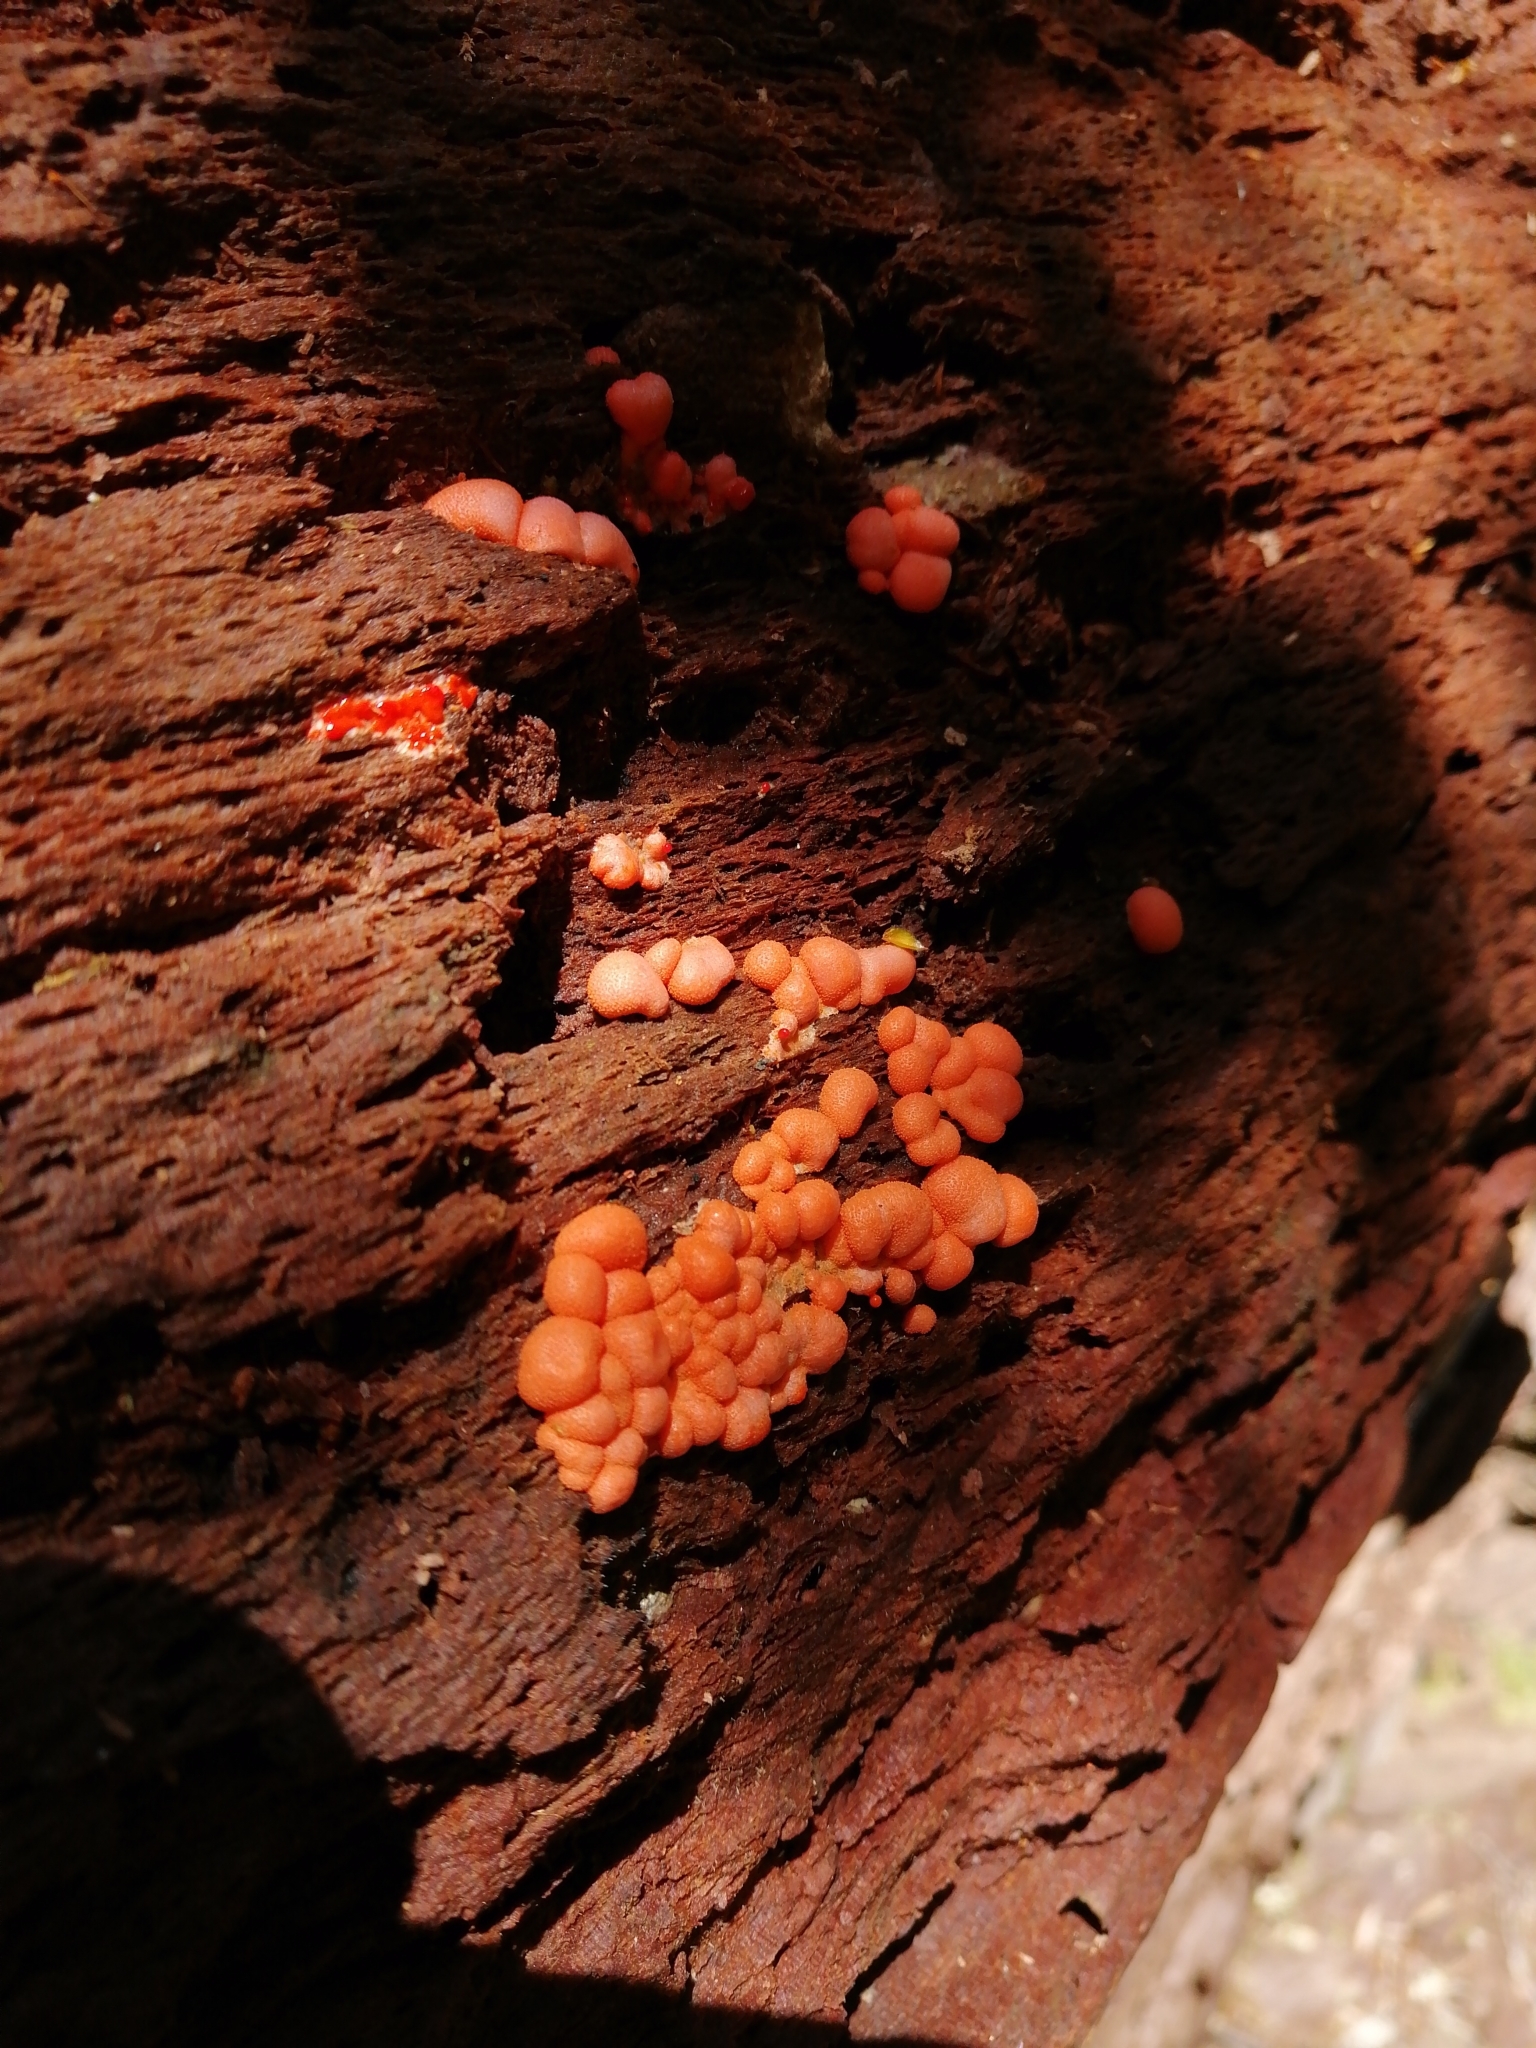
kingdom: Protozoa
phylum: Mycetozoa
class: Myxomycetes
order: Cribrariales
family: Tubiferaceae
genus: Lycogala
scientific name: Lycogala epidendrum
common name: Wolf's milk
